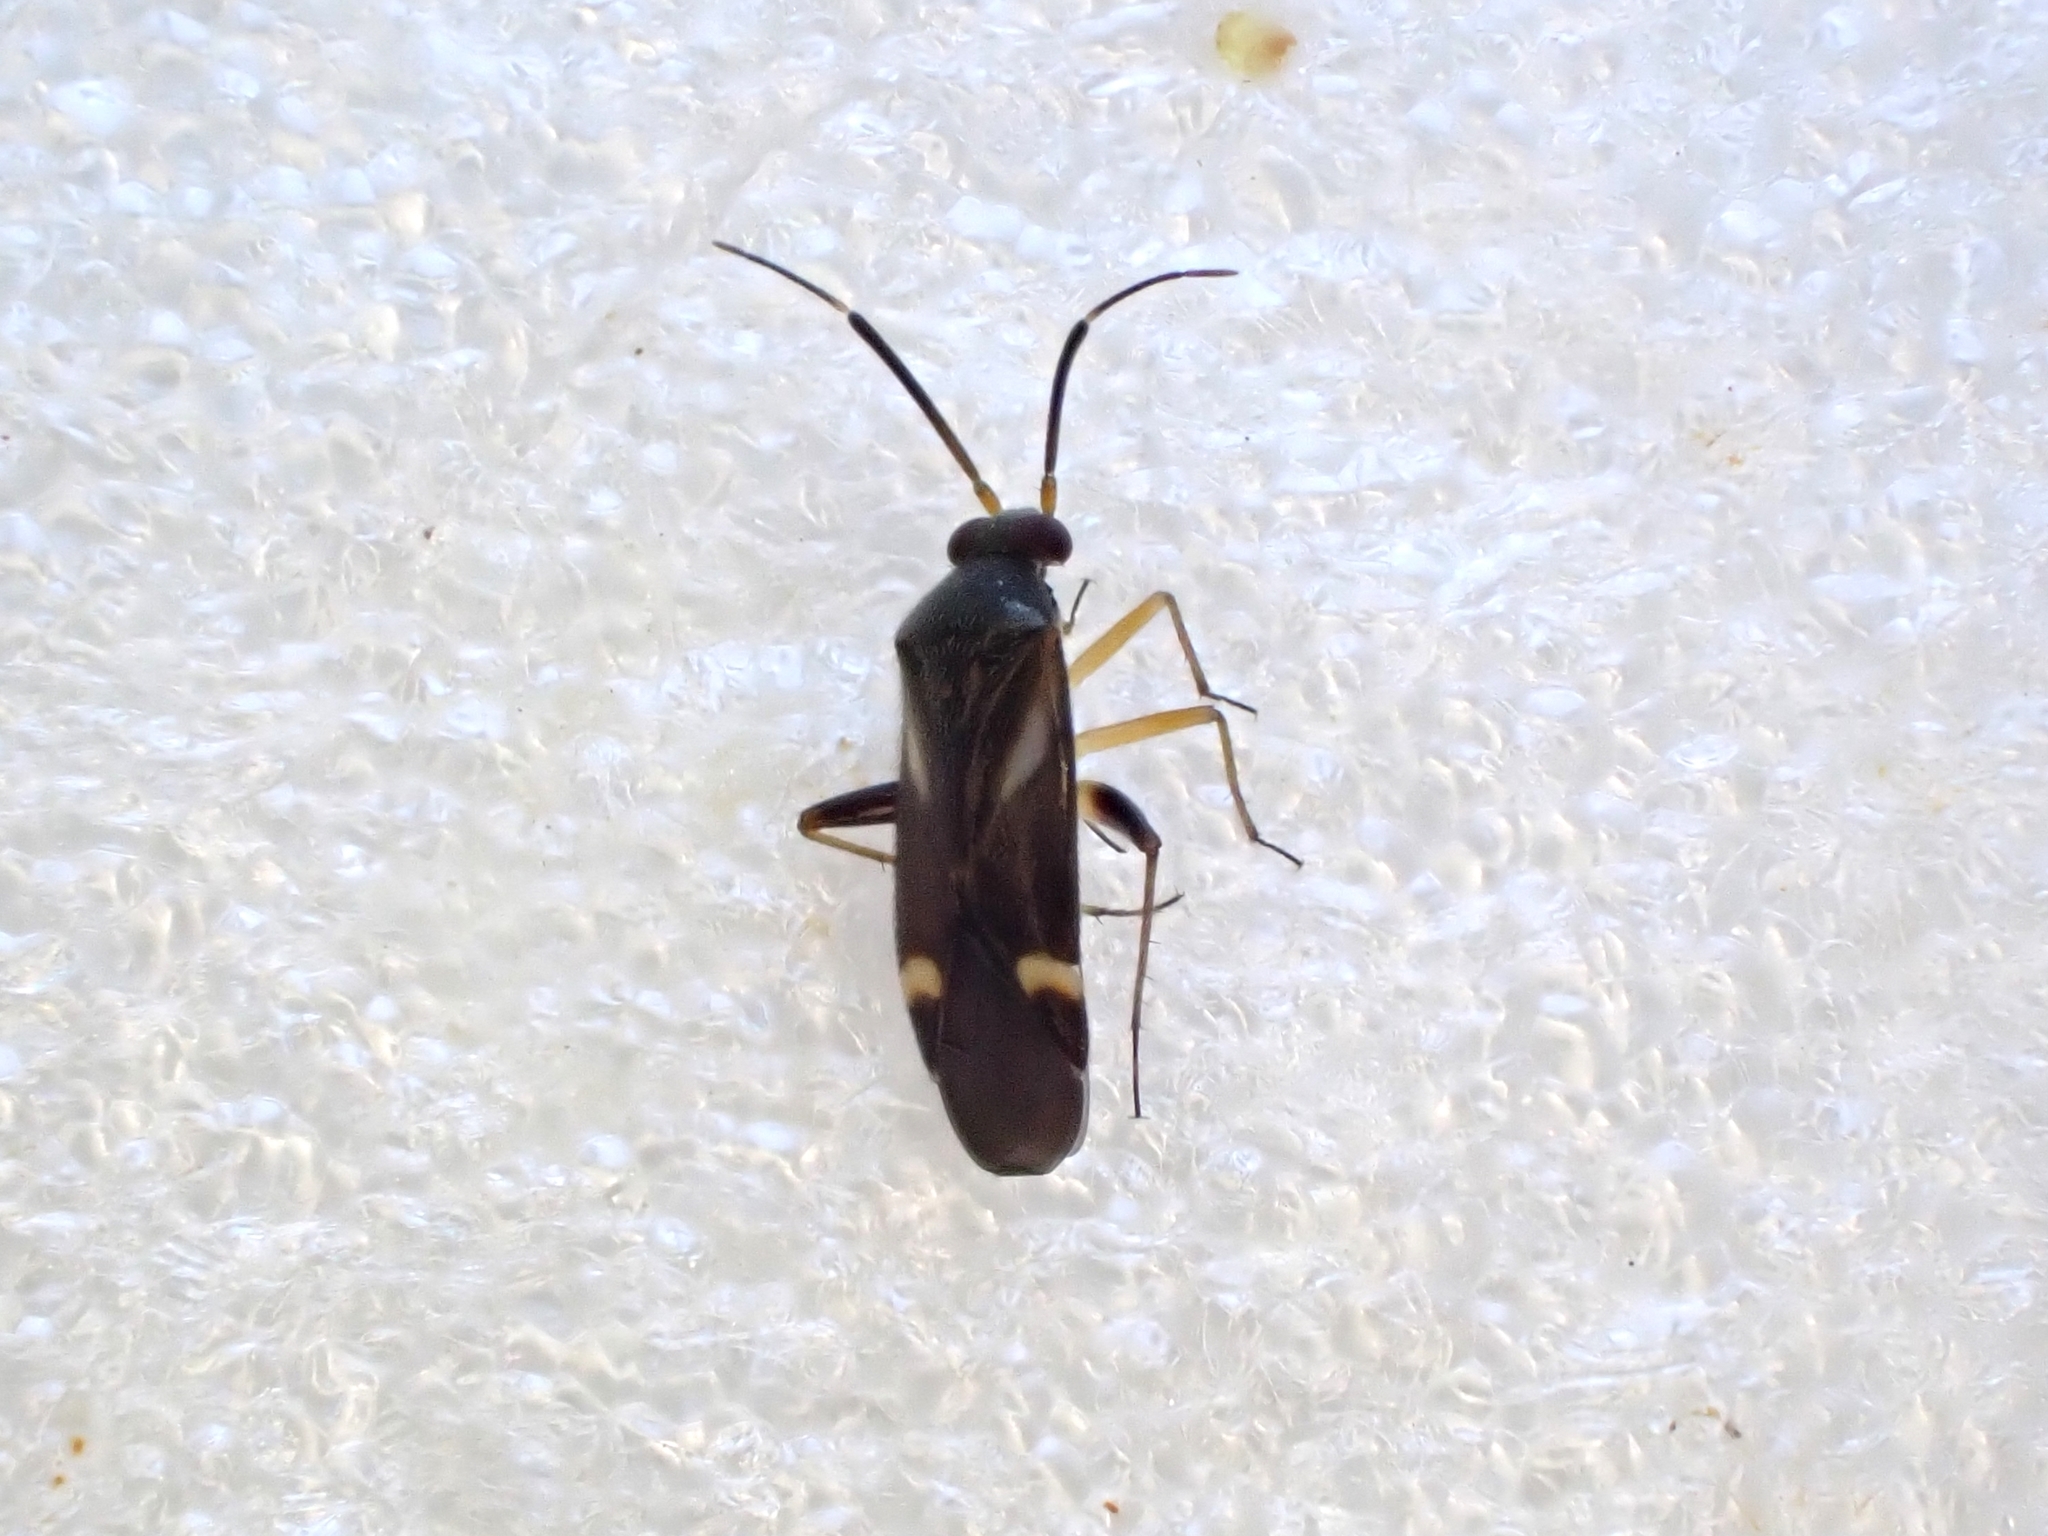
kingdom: Animalia
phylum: Arthropoda
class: Insecta
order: Hemiptera
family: Miridae
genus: Ausejanus
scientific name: Ausejanus albisignatus
